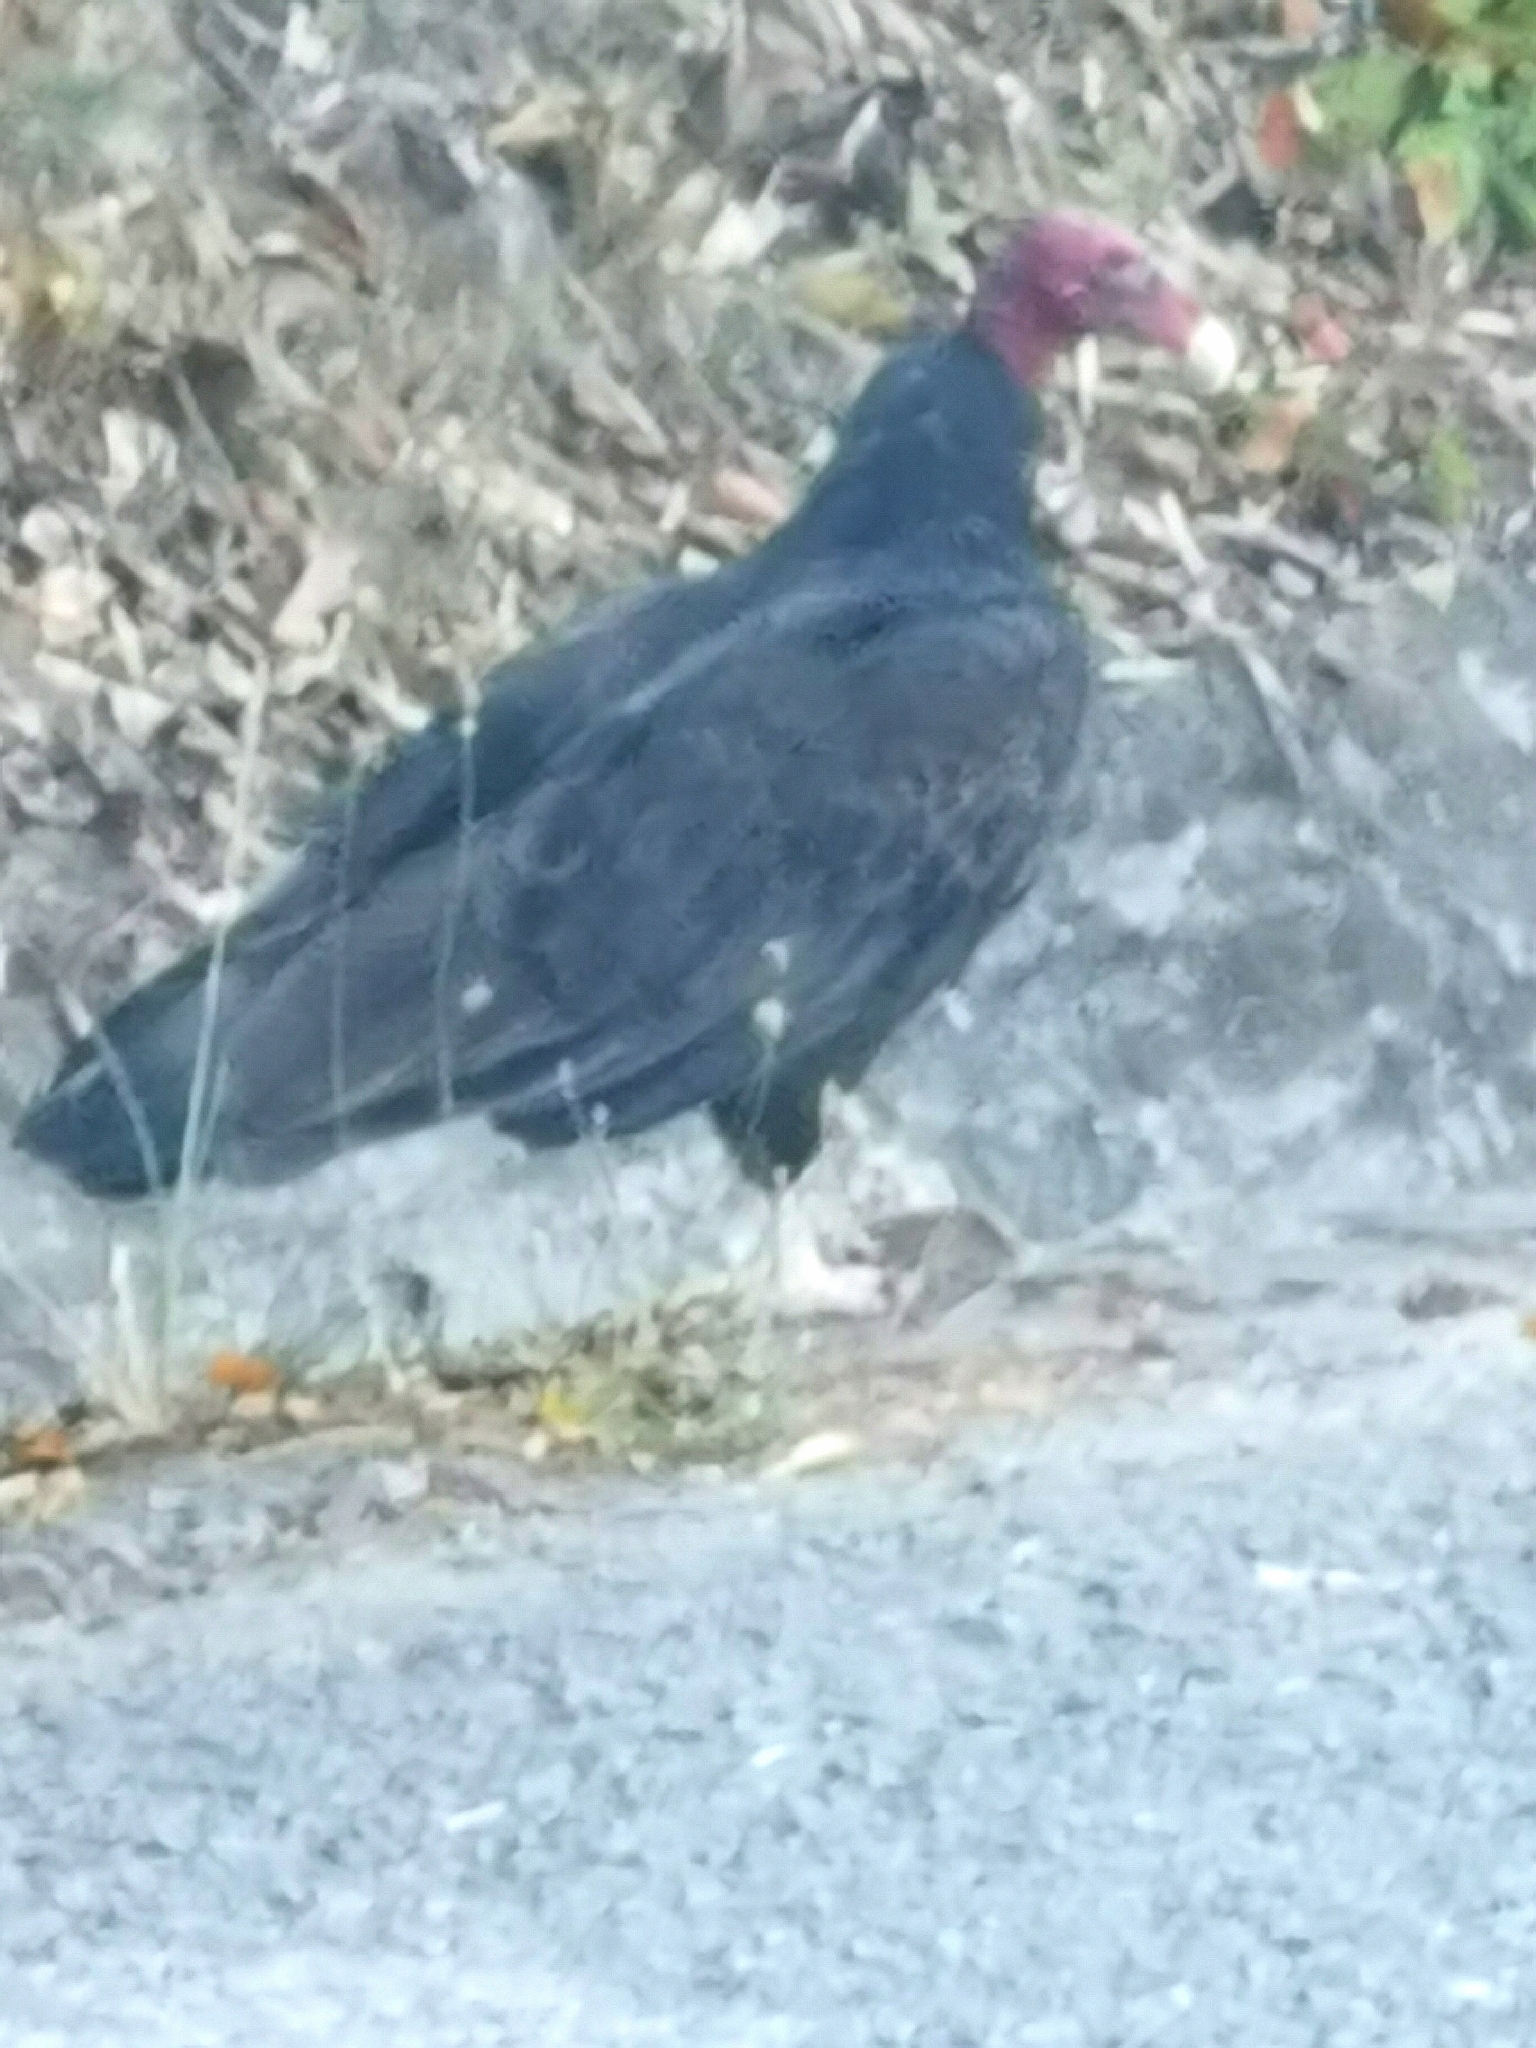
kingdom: Animalia
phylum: Chordata
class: Aves
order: Accipitriformes
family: Cathartidae
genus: Cathartes
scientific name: Cathartes aura
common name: Turkey vulture
